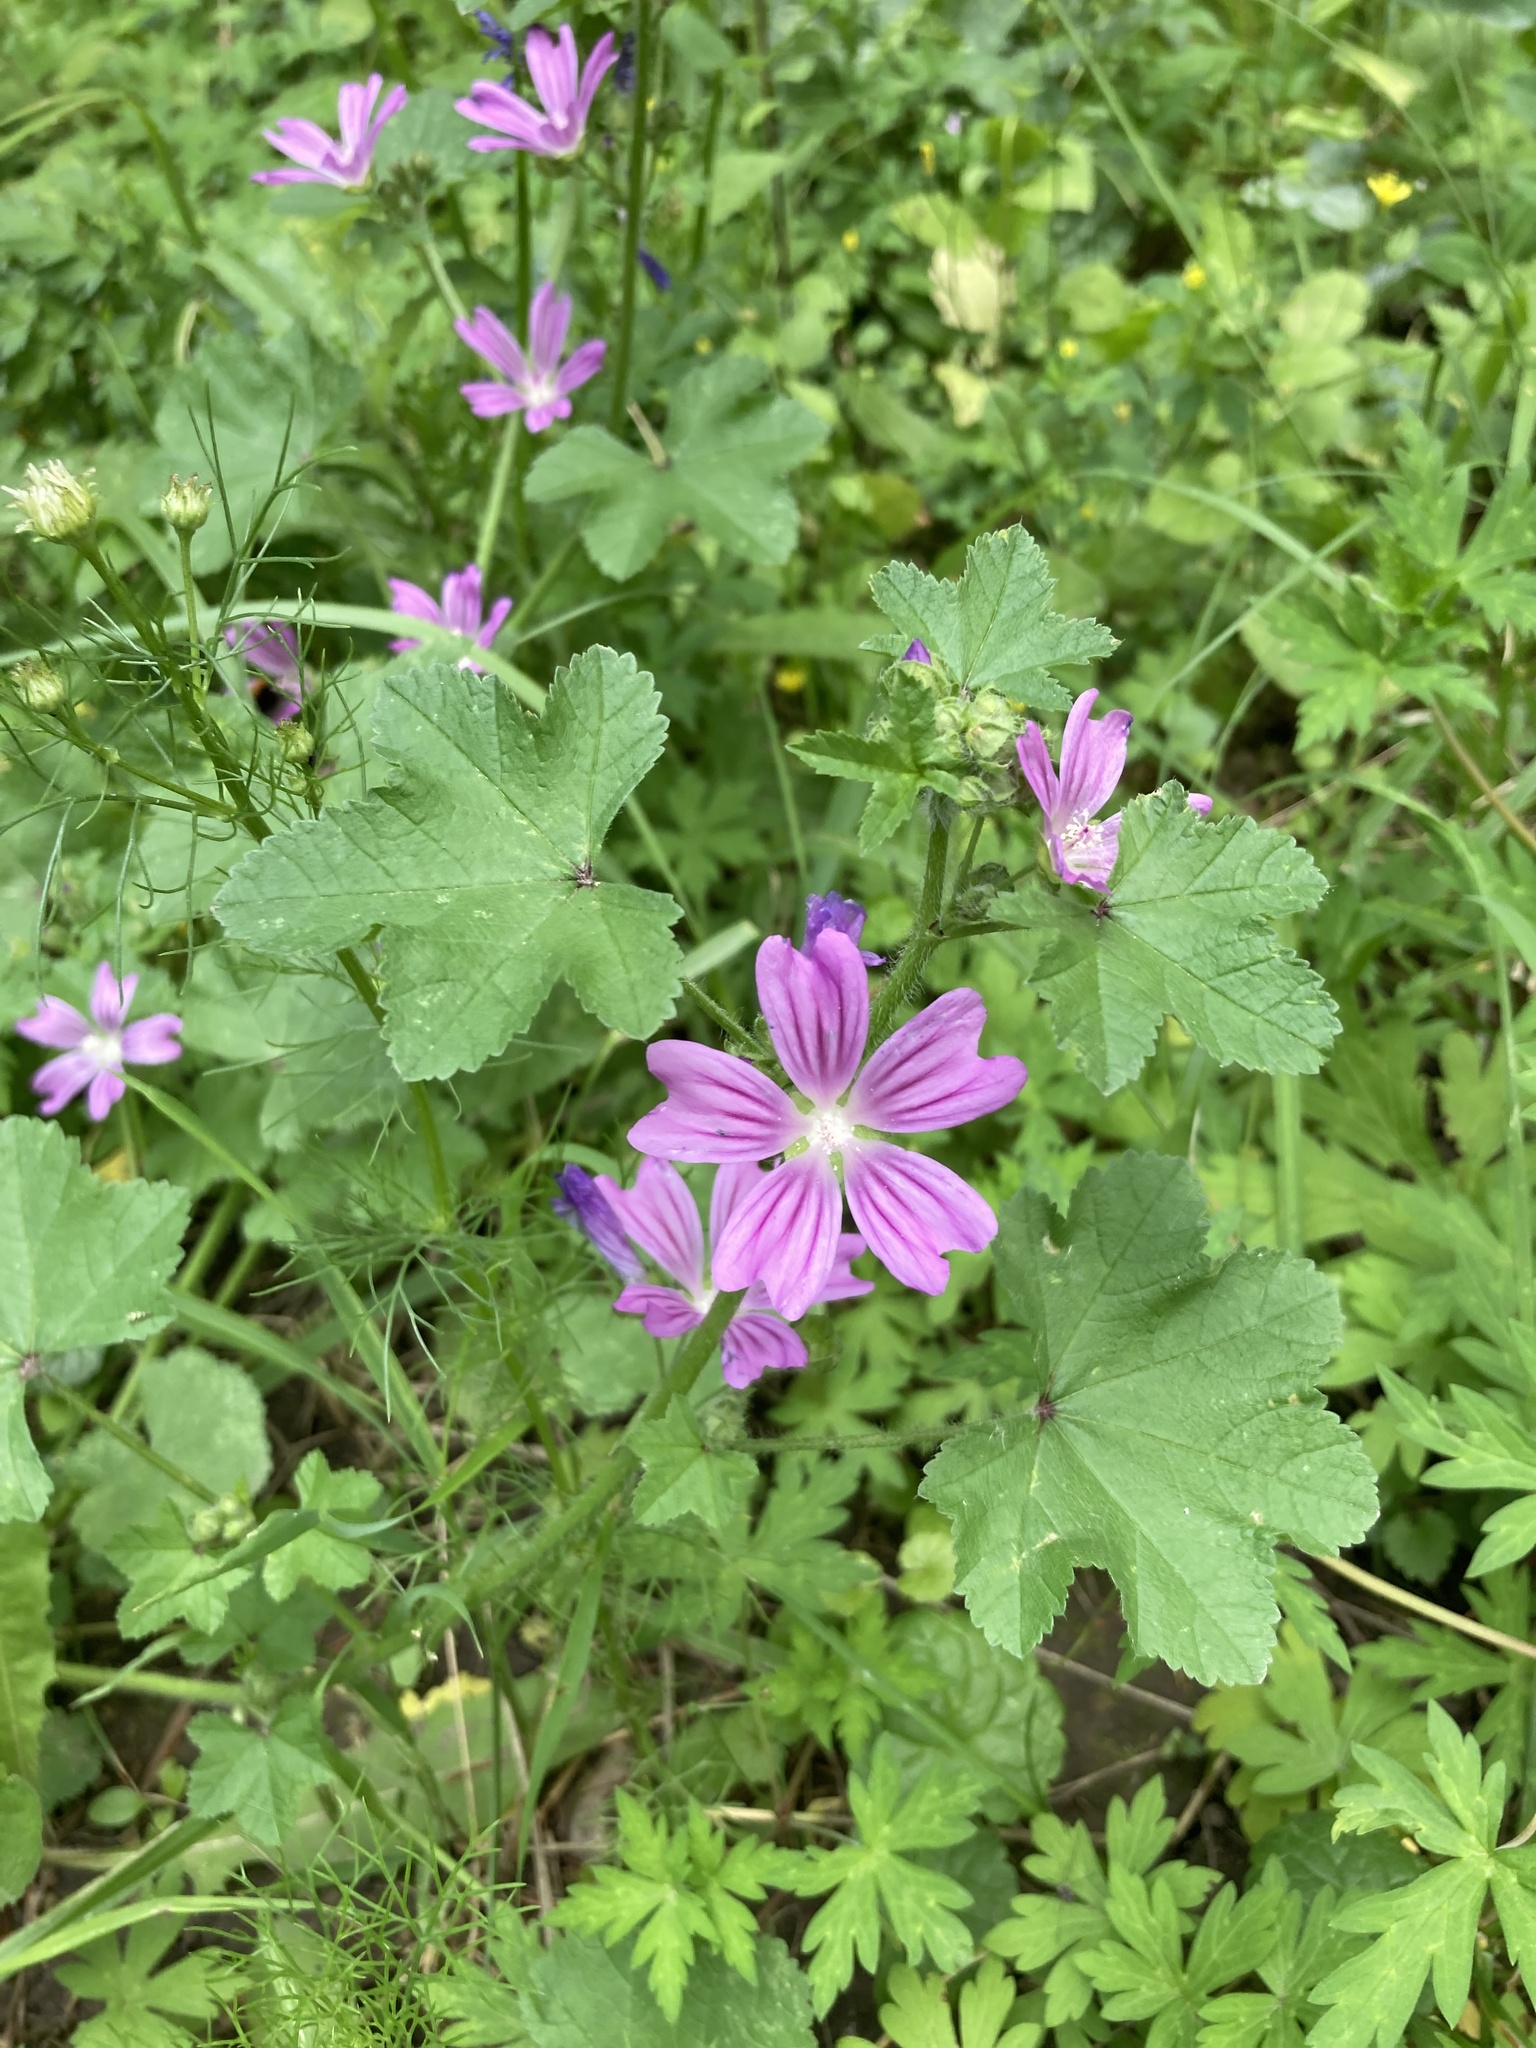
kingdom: Plantae
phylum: Tracheophyta
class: Magnoliopsida
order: Malvales
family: Malvaceae
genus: Malva
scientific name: Malva sylvestris
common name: Common mallow
